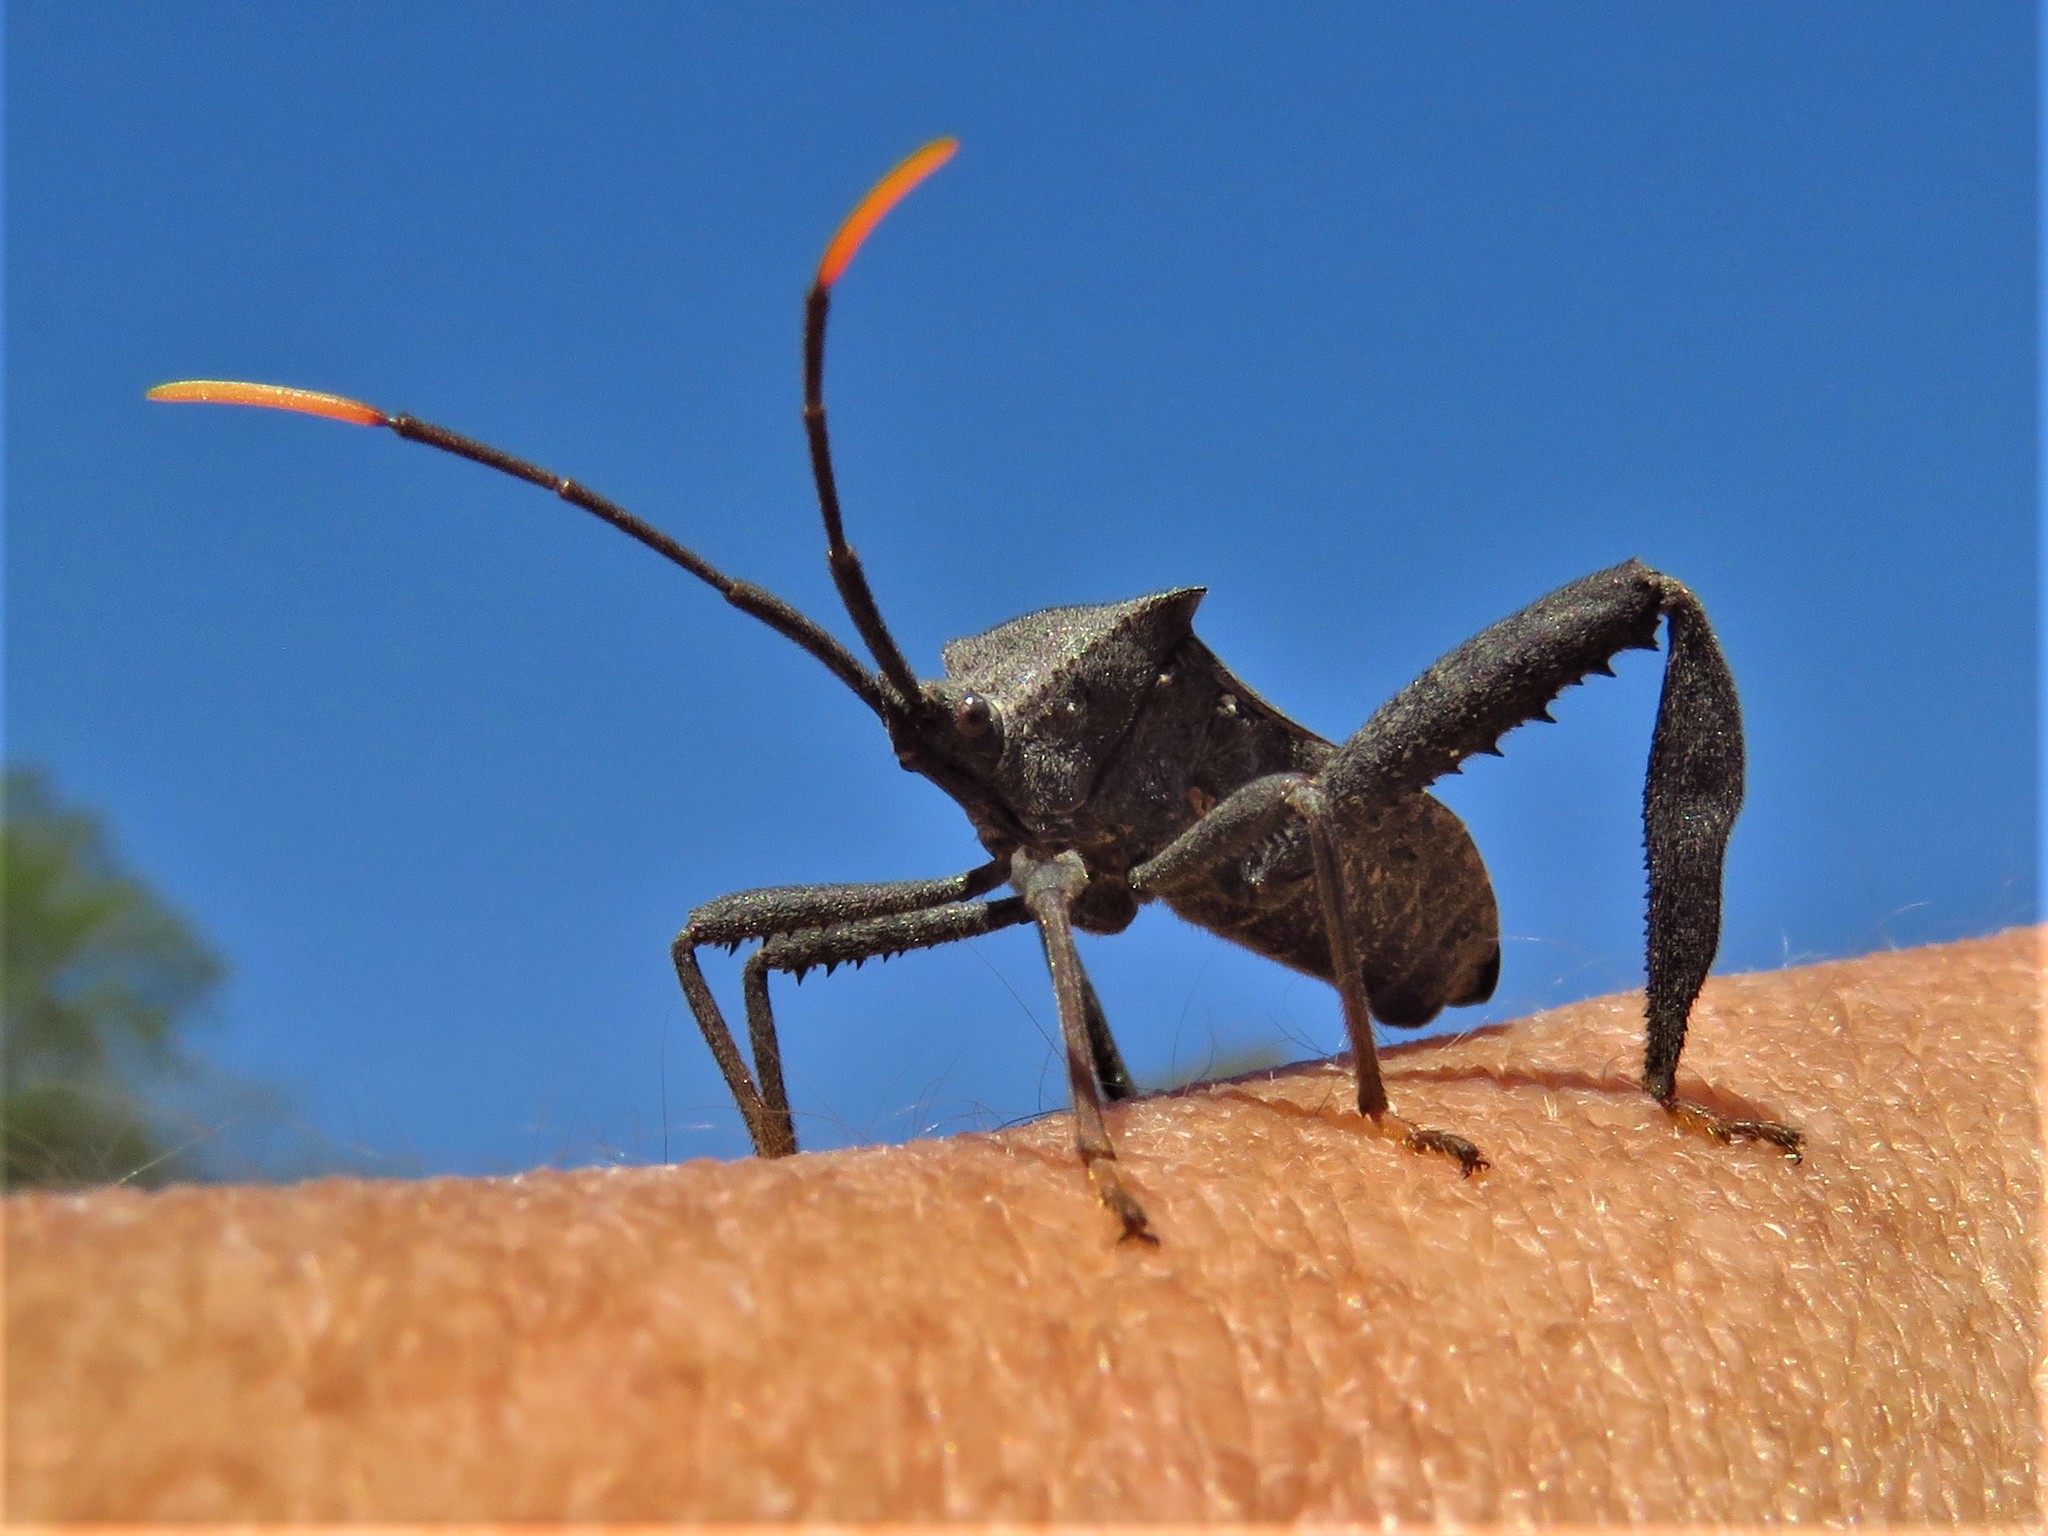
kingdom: Animalia
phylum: Arthropoda
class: Insecta
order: Hemiptera
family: Coreidae
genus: Acanthocephala
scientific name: Acanthocephala terminalis
